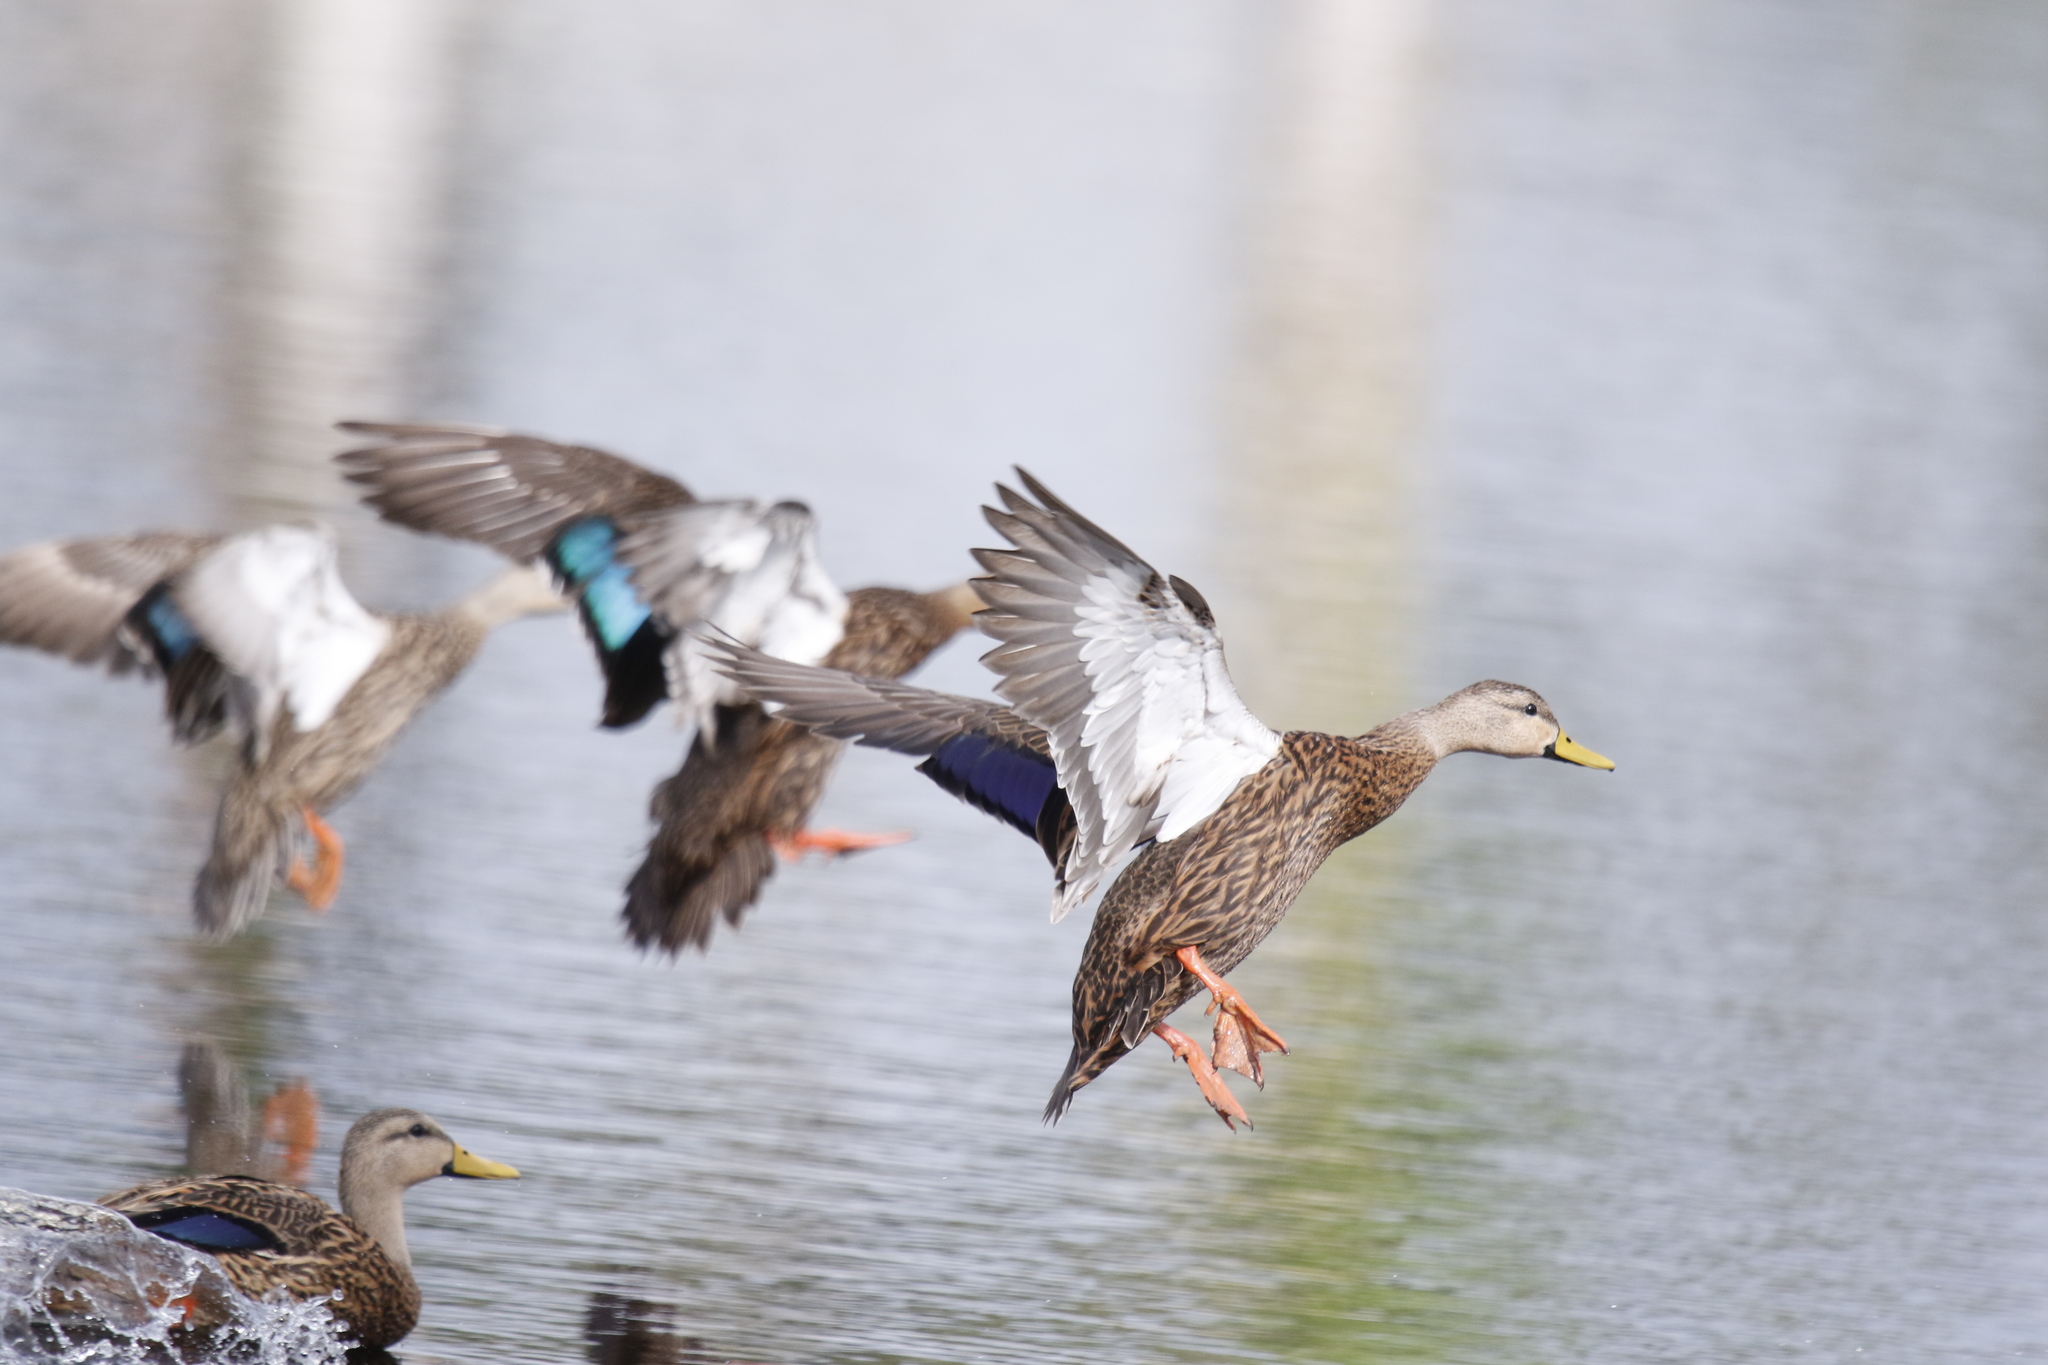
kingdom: Animalia
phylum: Chordata
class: Aves
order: Anseriformes
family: Anatidae
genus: Anas
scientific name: Anas fulvigula
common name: Mottled duck
